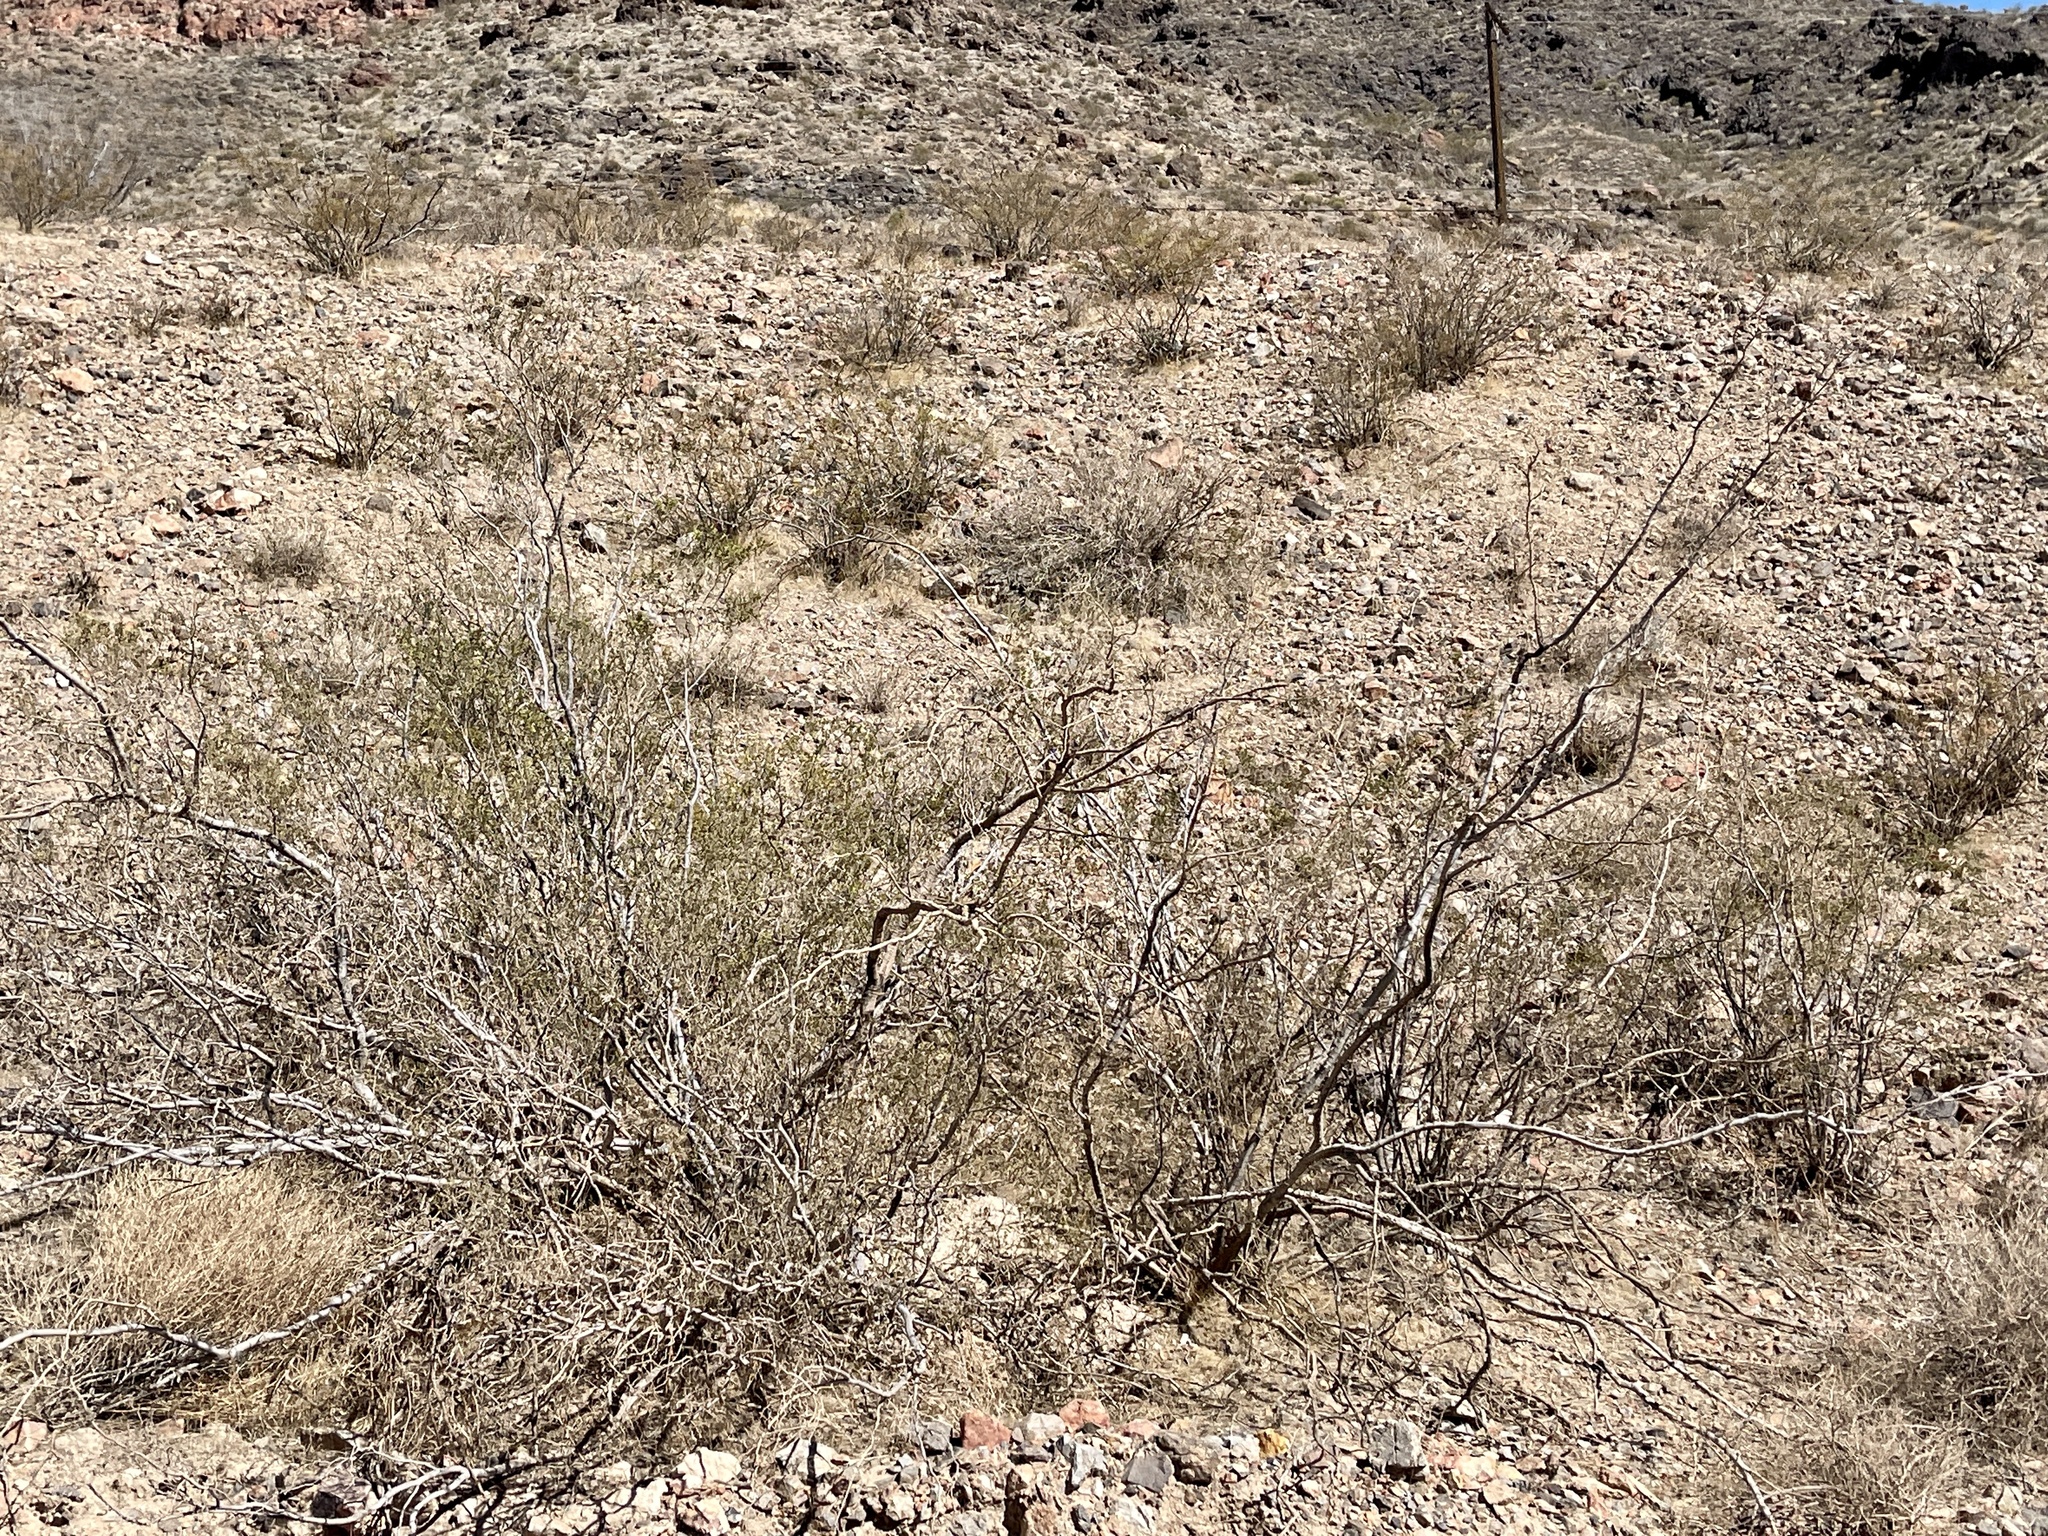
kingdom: Plantae
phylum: Tracheophyta
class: Magnoliopsida
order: Zygophyllales
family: Zygophyllaceae
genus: Larrea
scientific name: Larrea tridentata
